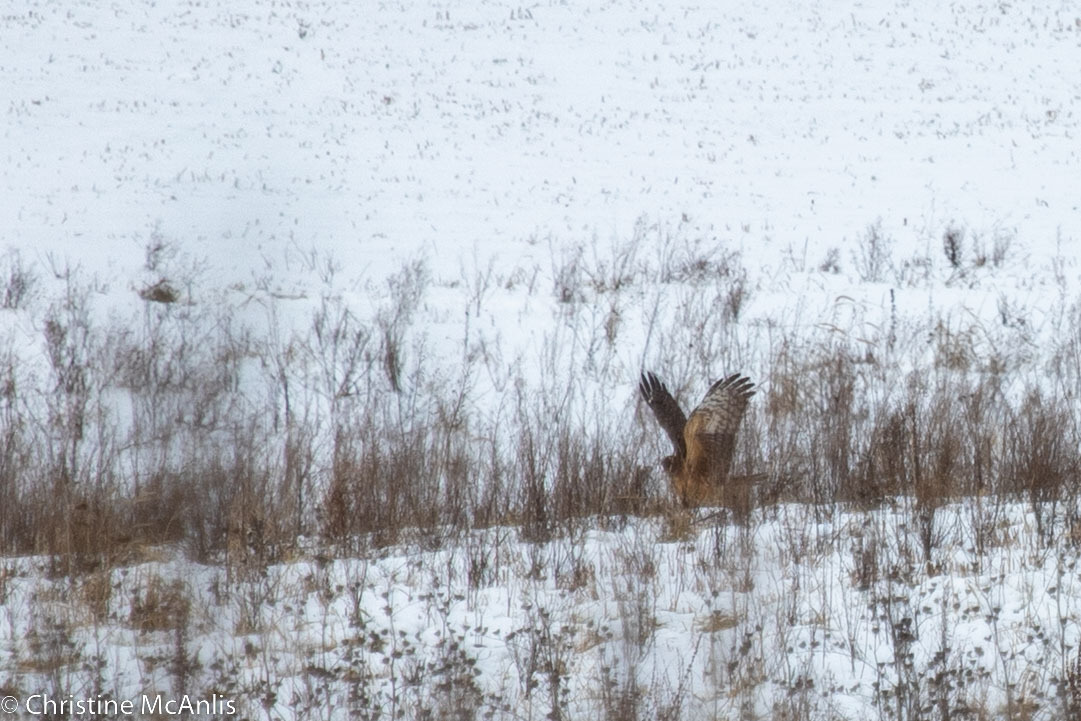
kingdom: Animalia
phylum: Chordata
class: Aves
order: Accipitriformes
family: Accipitridae
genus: Circus
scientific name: Circus cyaneus
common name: Hen harrier
